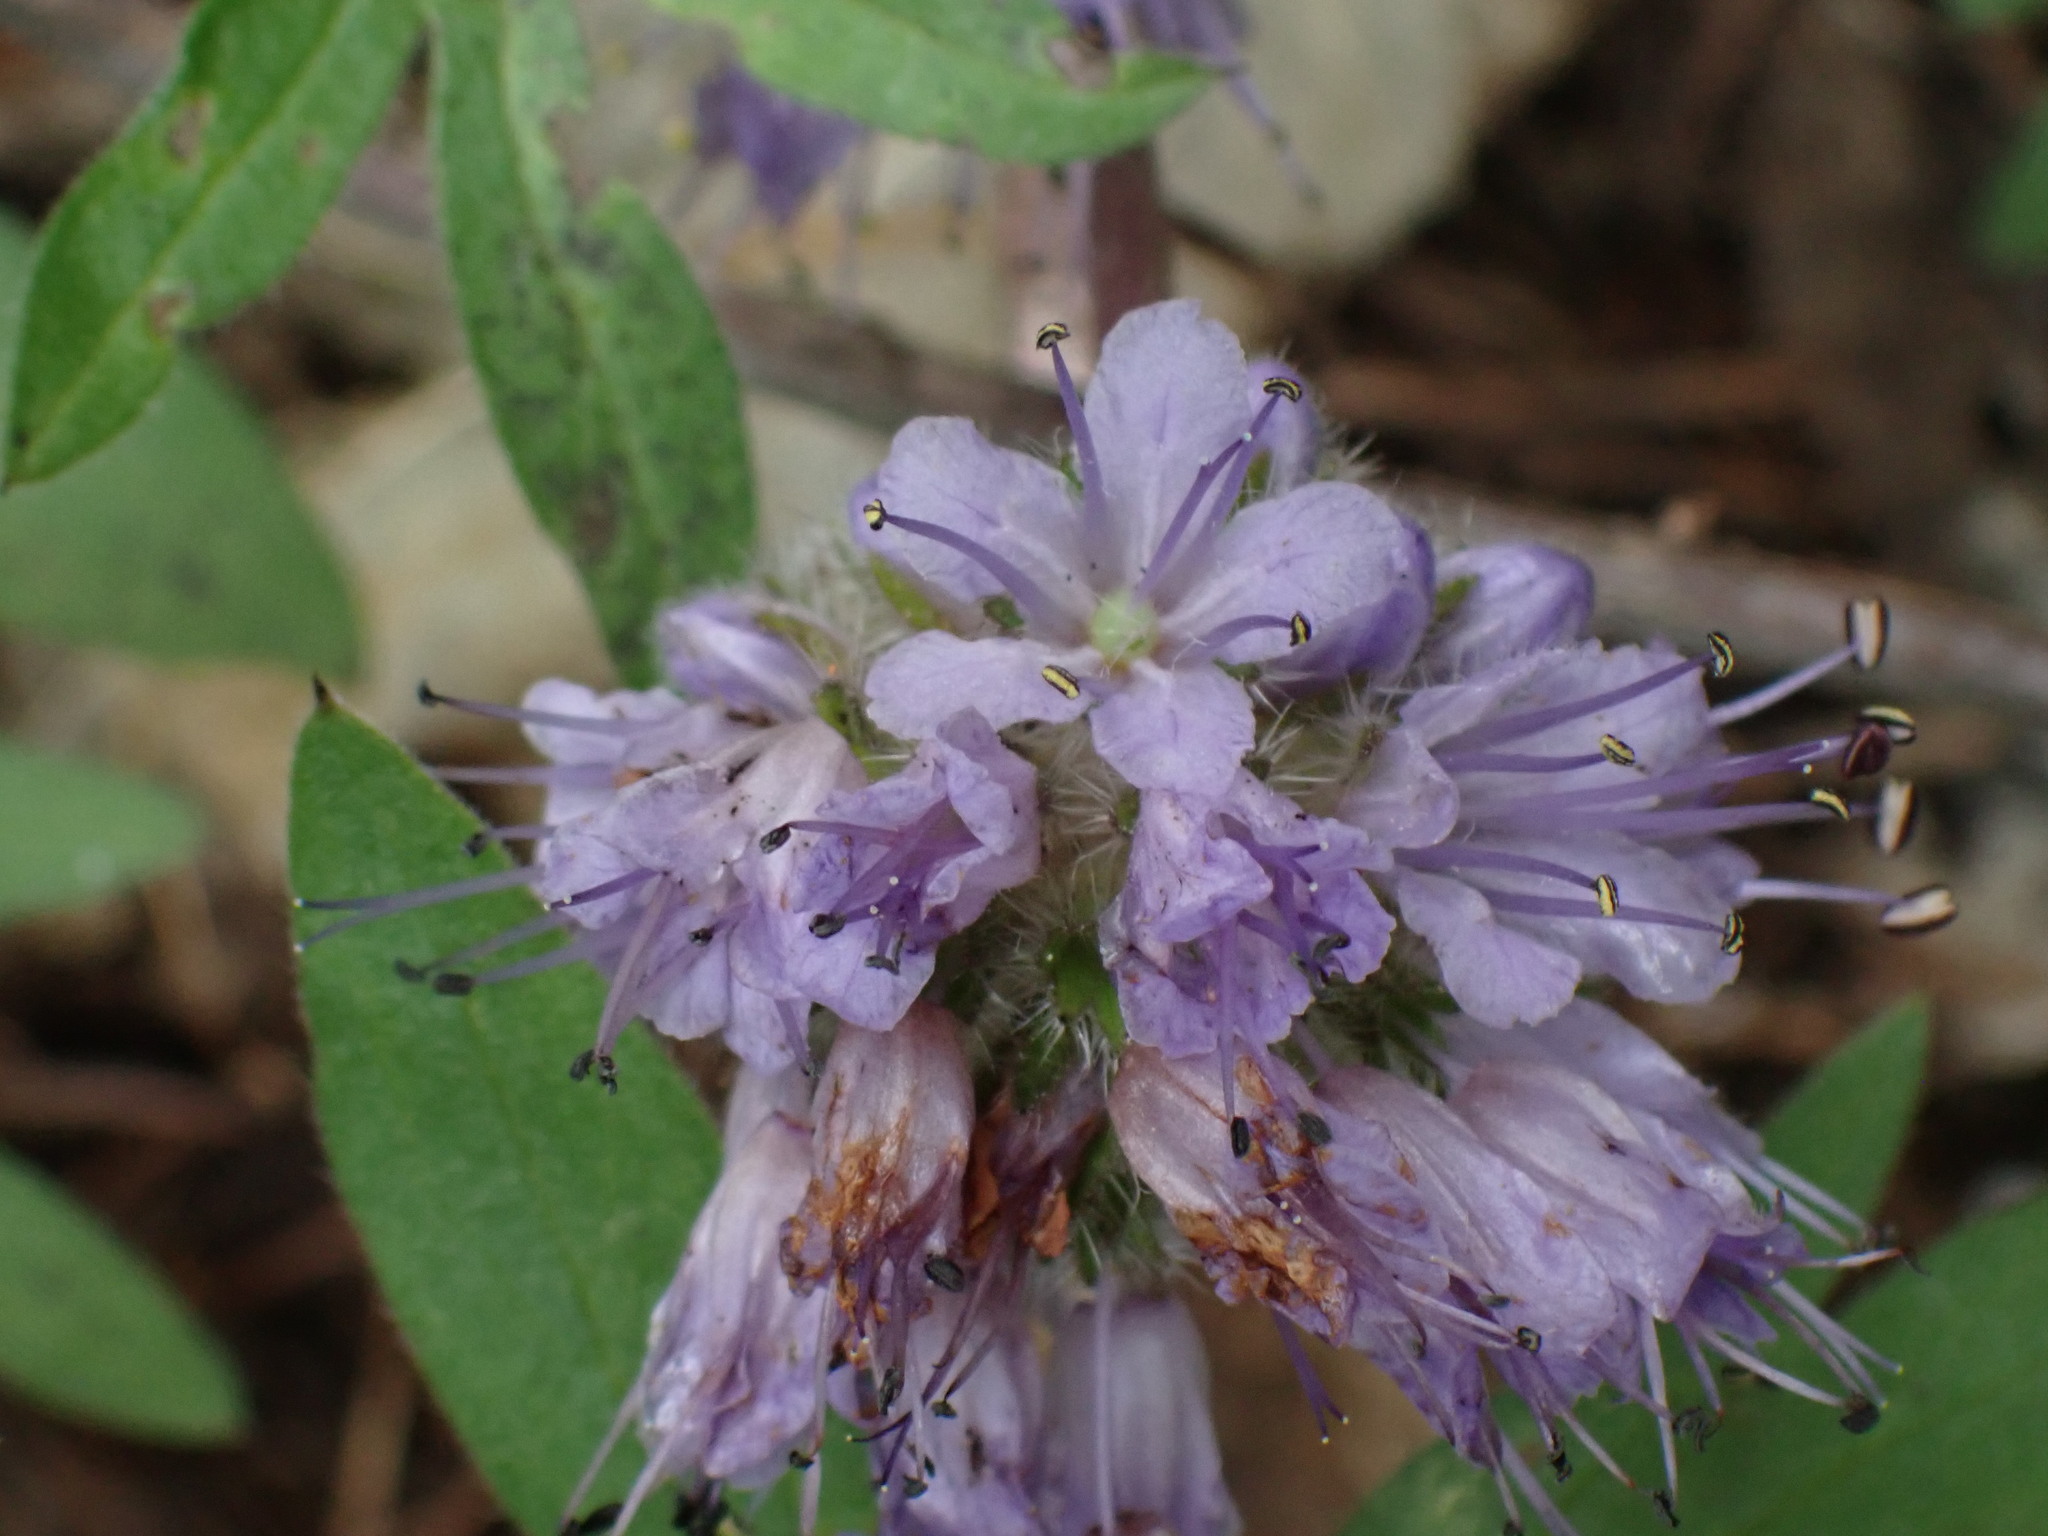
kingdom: Plantae
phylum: Tracheophyta
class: Magnoliopsida
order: Boraginales
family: Hydrophyllaceae
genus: Hydrophyllum
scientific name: Hydrophyllum capitatum
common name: Woollen-breeches
